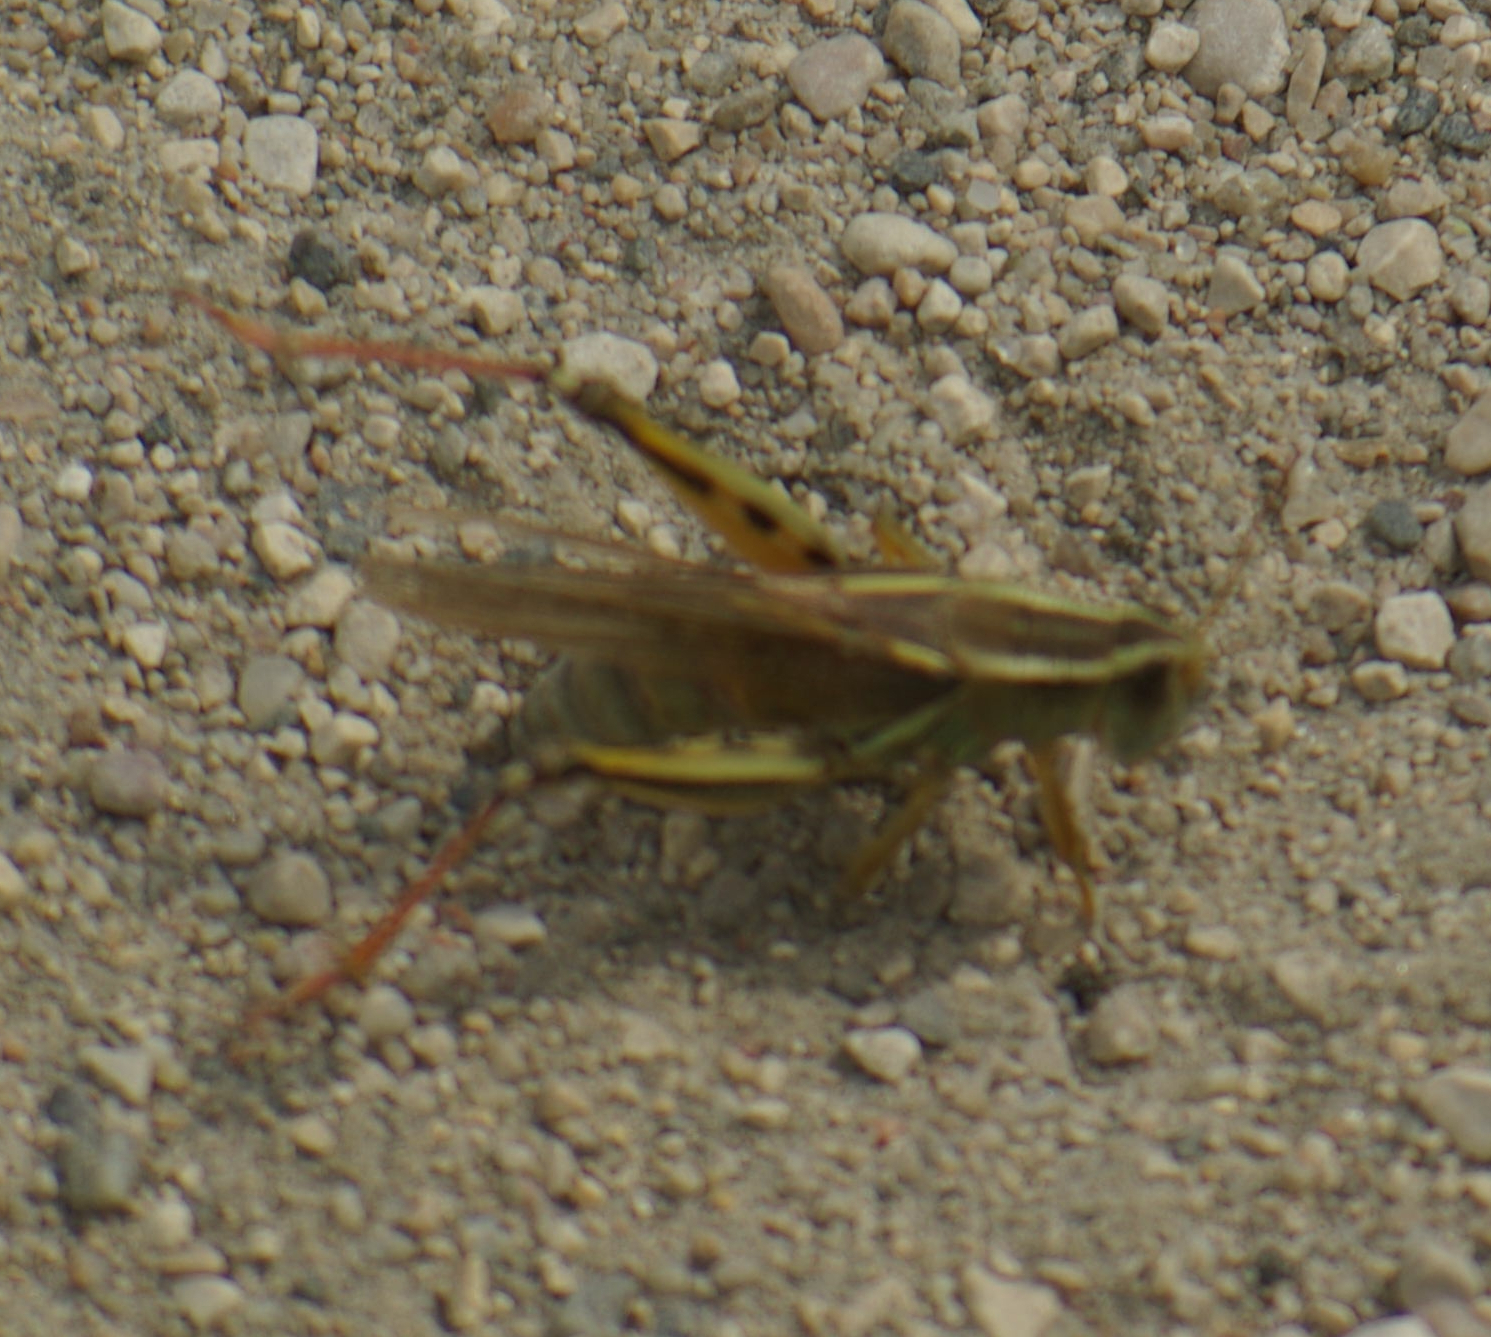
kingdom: Animalia
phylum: Arthropoda
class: Insecta
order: Orthoptera
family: Acrididae
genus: Melanoplus
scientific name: Melanoplus bivittatus
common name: Two-striped grasshopper
